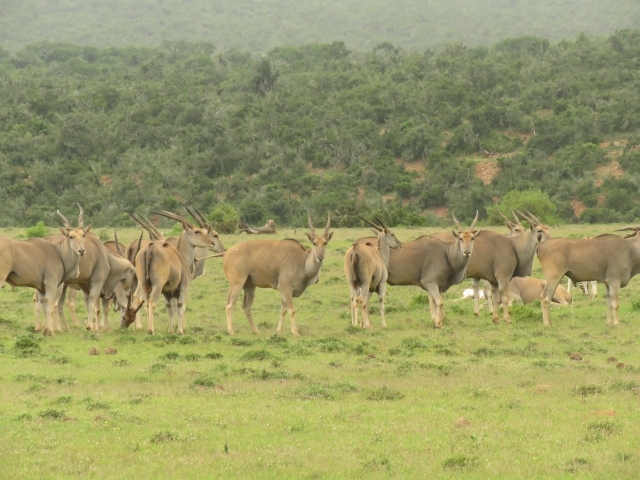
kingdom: Animalia
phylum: Chordata
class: Mammalia
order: Artiodactyla
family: Bovidae
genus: Taurotragus
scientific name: Taurotragus oryx
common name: Common eland
